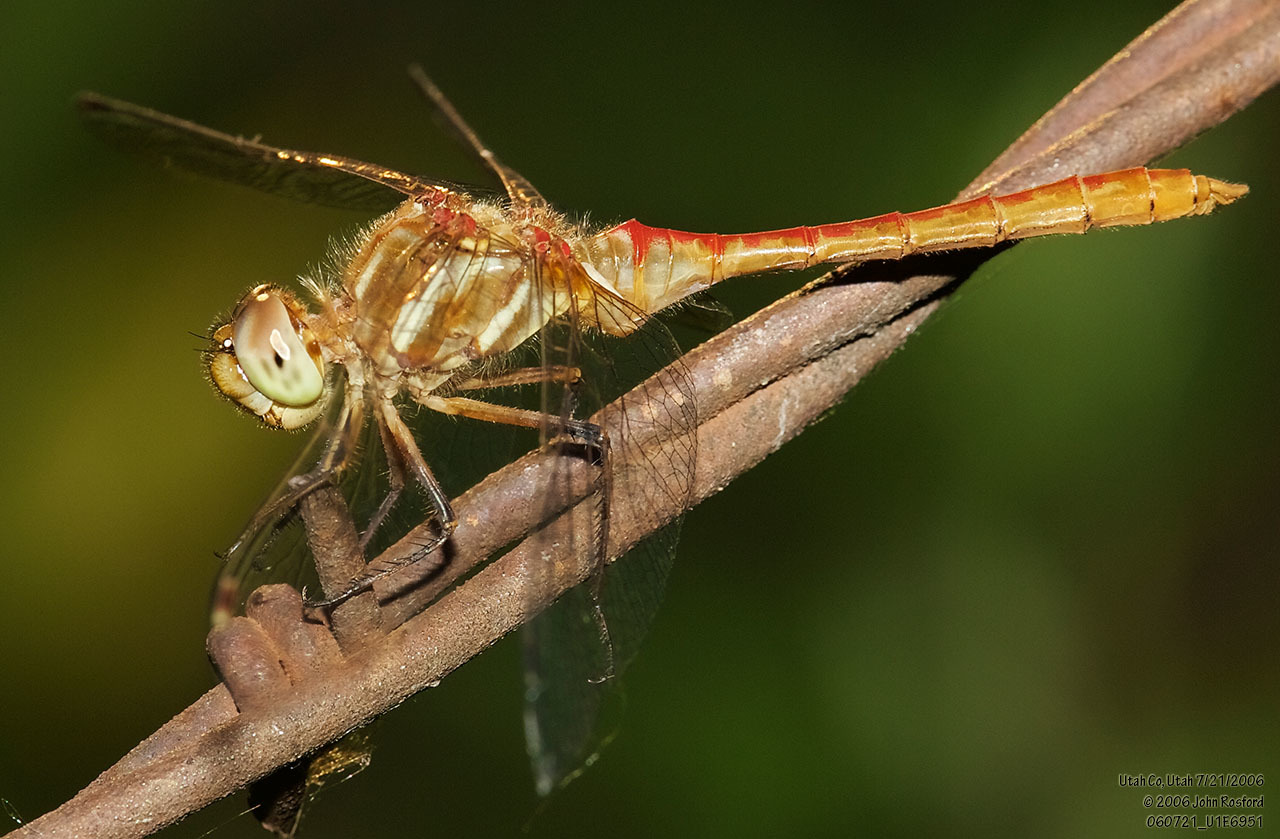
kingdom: Animalia
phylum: Arthropoda
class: Insecta
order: Odonata
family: Libellulidae
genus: Sympetrum
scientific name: Sympetrum pallipes
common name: Striped meadowhawk
